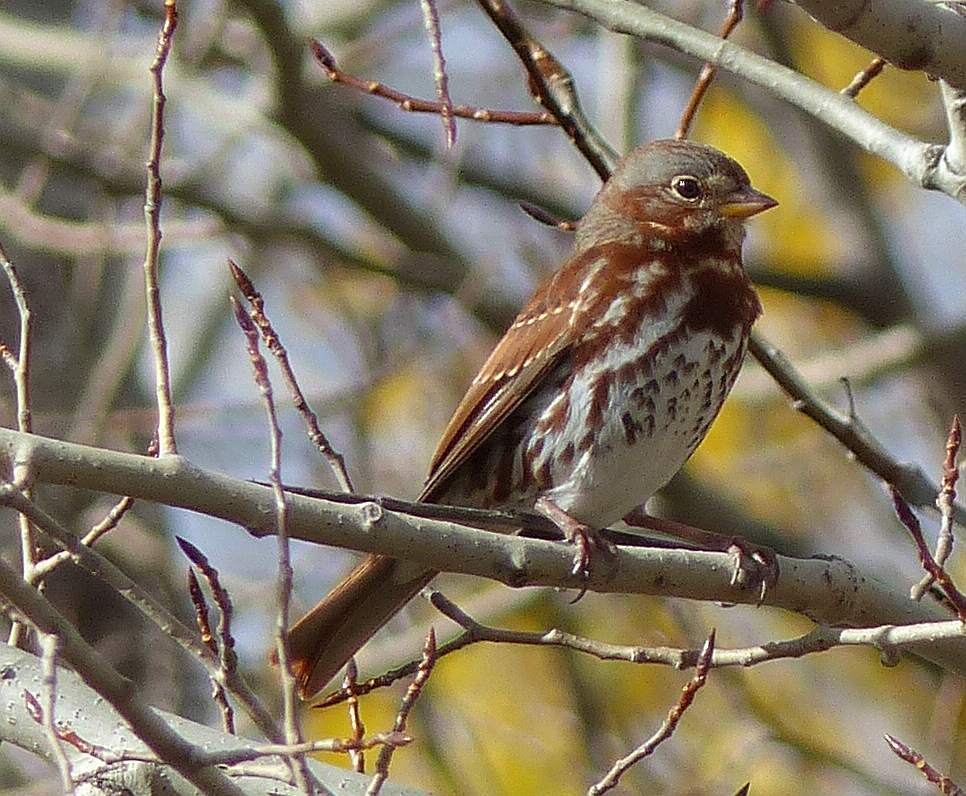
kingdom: Animalia
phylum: Chordata
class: Aves
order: Passeriformes
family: Passerellidae
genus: Passerella
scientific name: Passerella iliaca
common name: Fox sparrow
